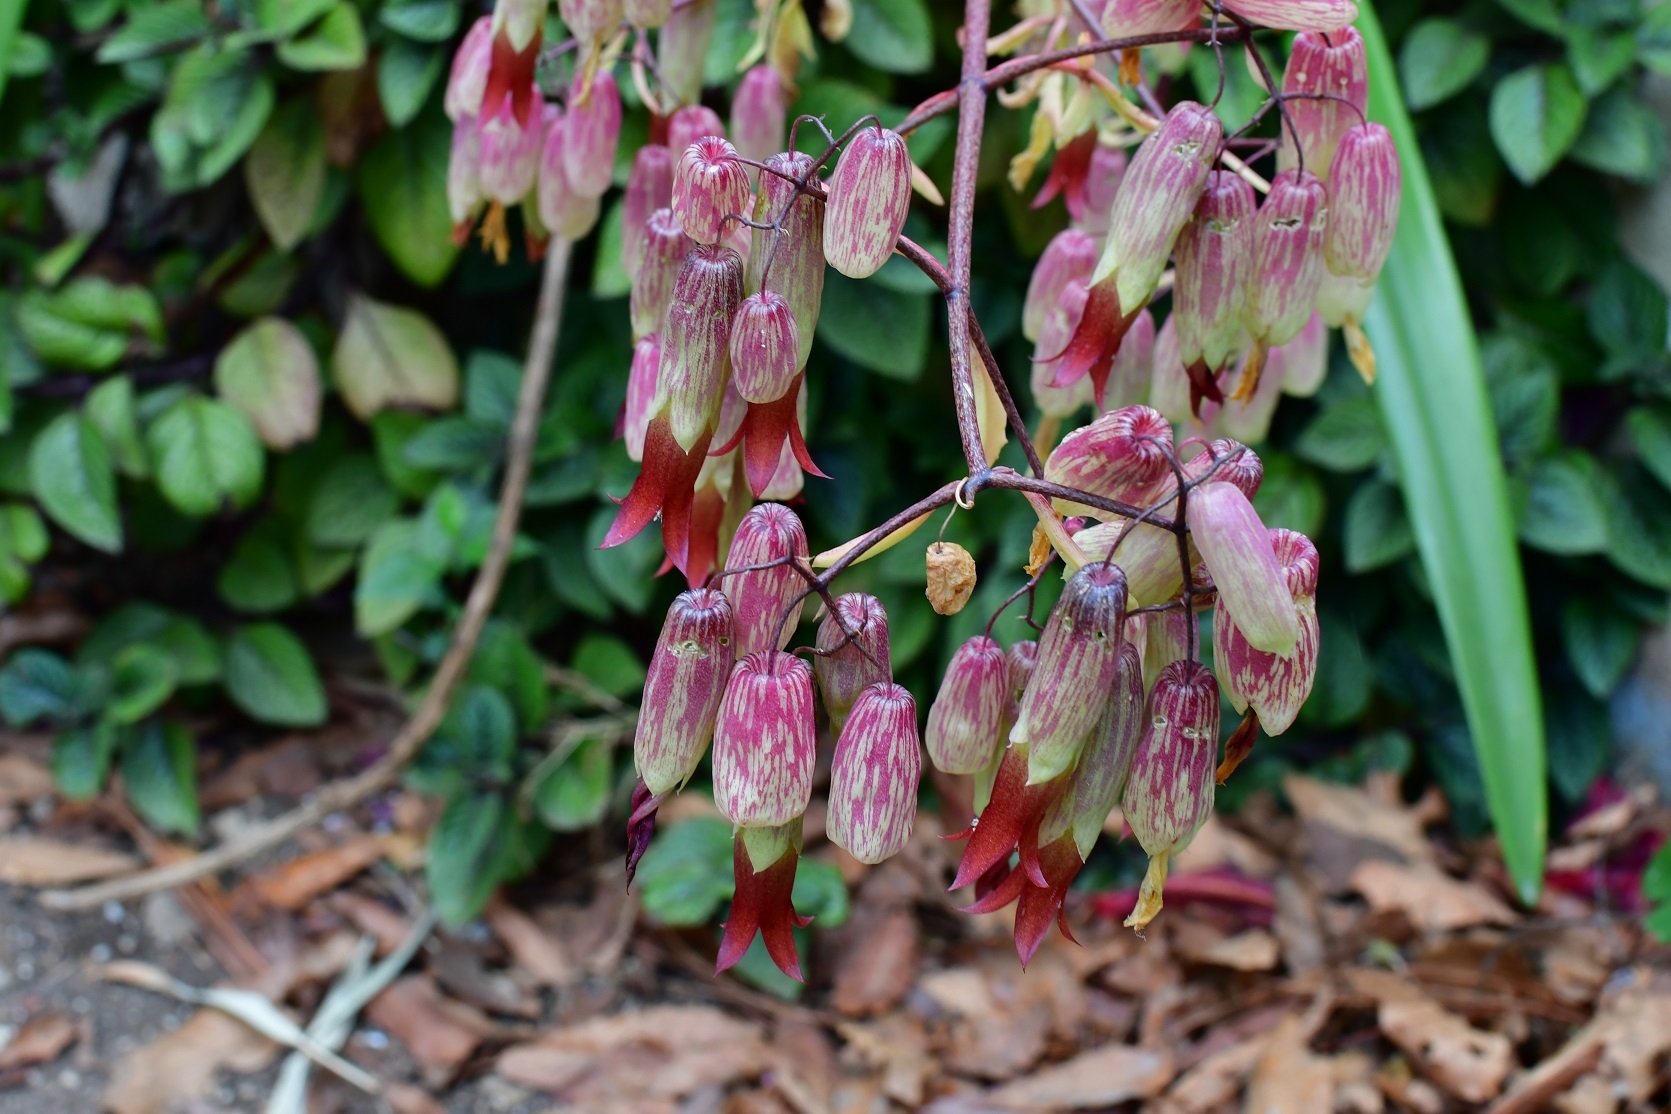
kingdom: Plantae
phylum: Tracheophyta
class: Magnoliopsida
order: Saxifragales
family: Crassulaceae
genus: Kalanchoe
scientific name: Kalanchoe pinnata
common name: Cathedral bells
